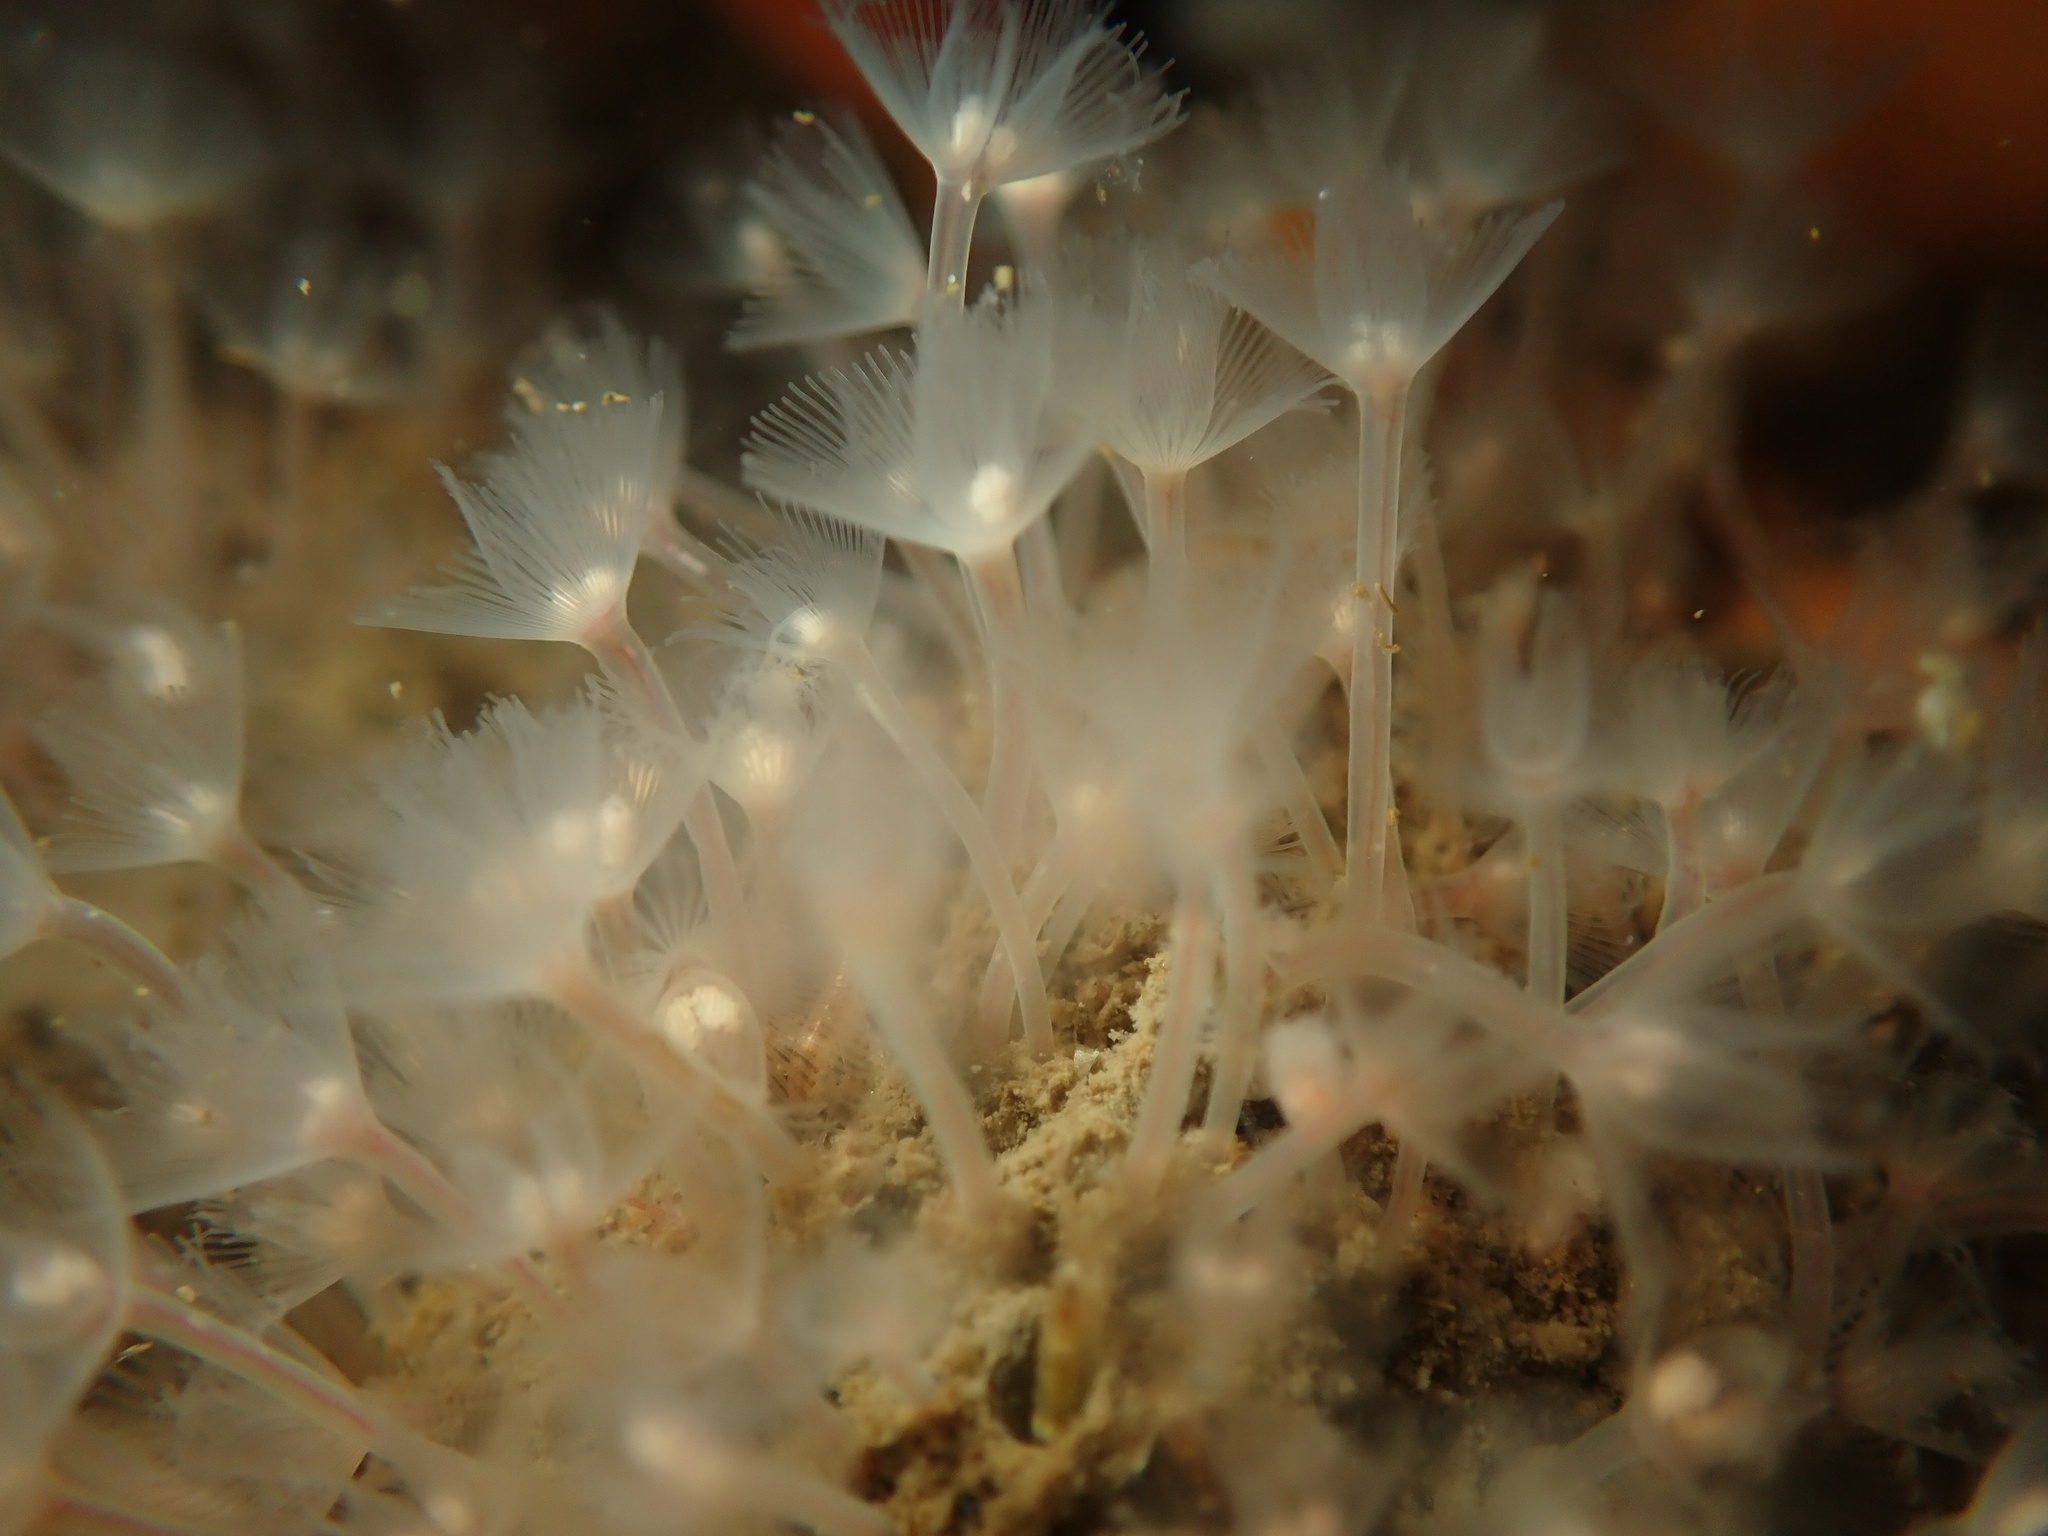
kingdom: Animalia
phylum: Phoronida
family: Phoronidae
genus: Phoronis
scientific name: Phoronis ijimai
